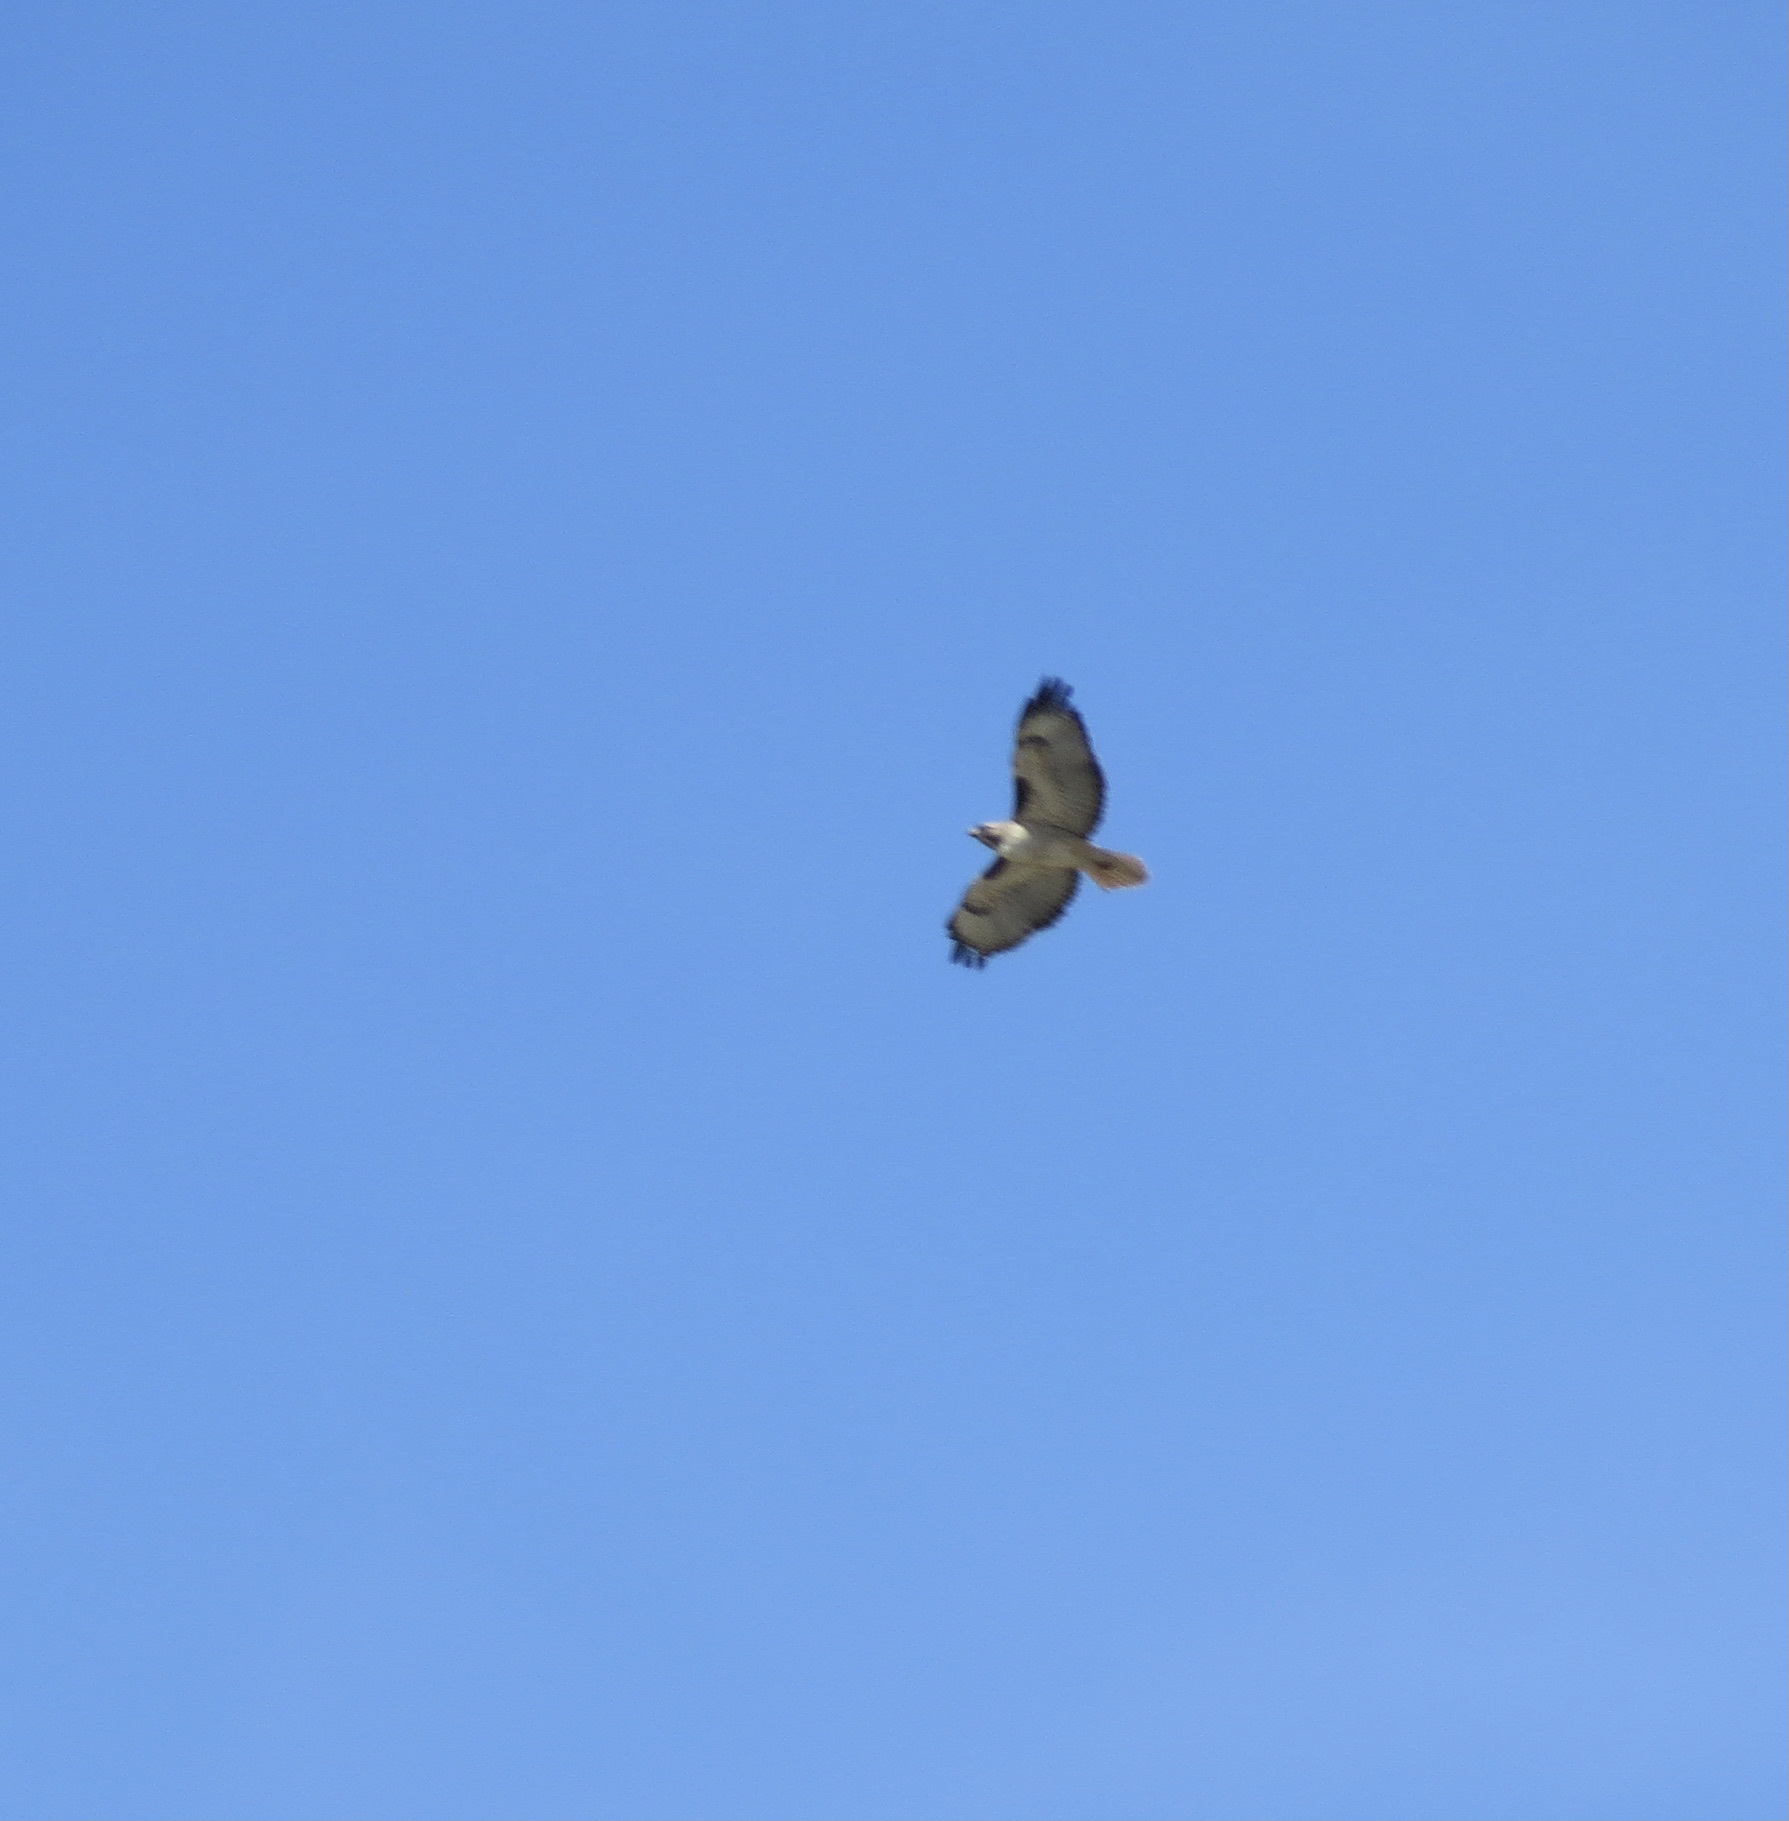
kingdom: Animalia
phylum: Chordata
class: Aves
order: Accipitriformes
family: Accipitridae
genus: Buteo
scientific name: Buteo jamaicensis
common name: Red-tailed hawk
